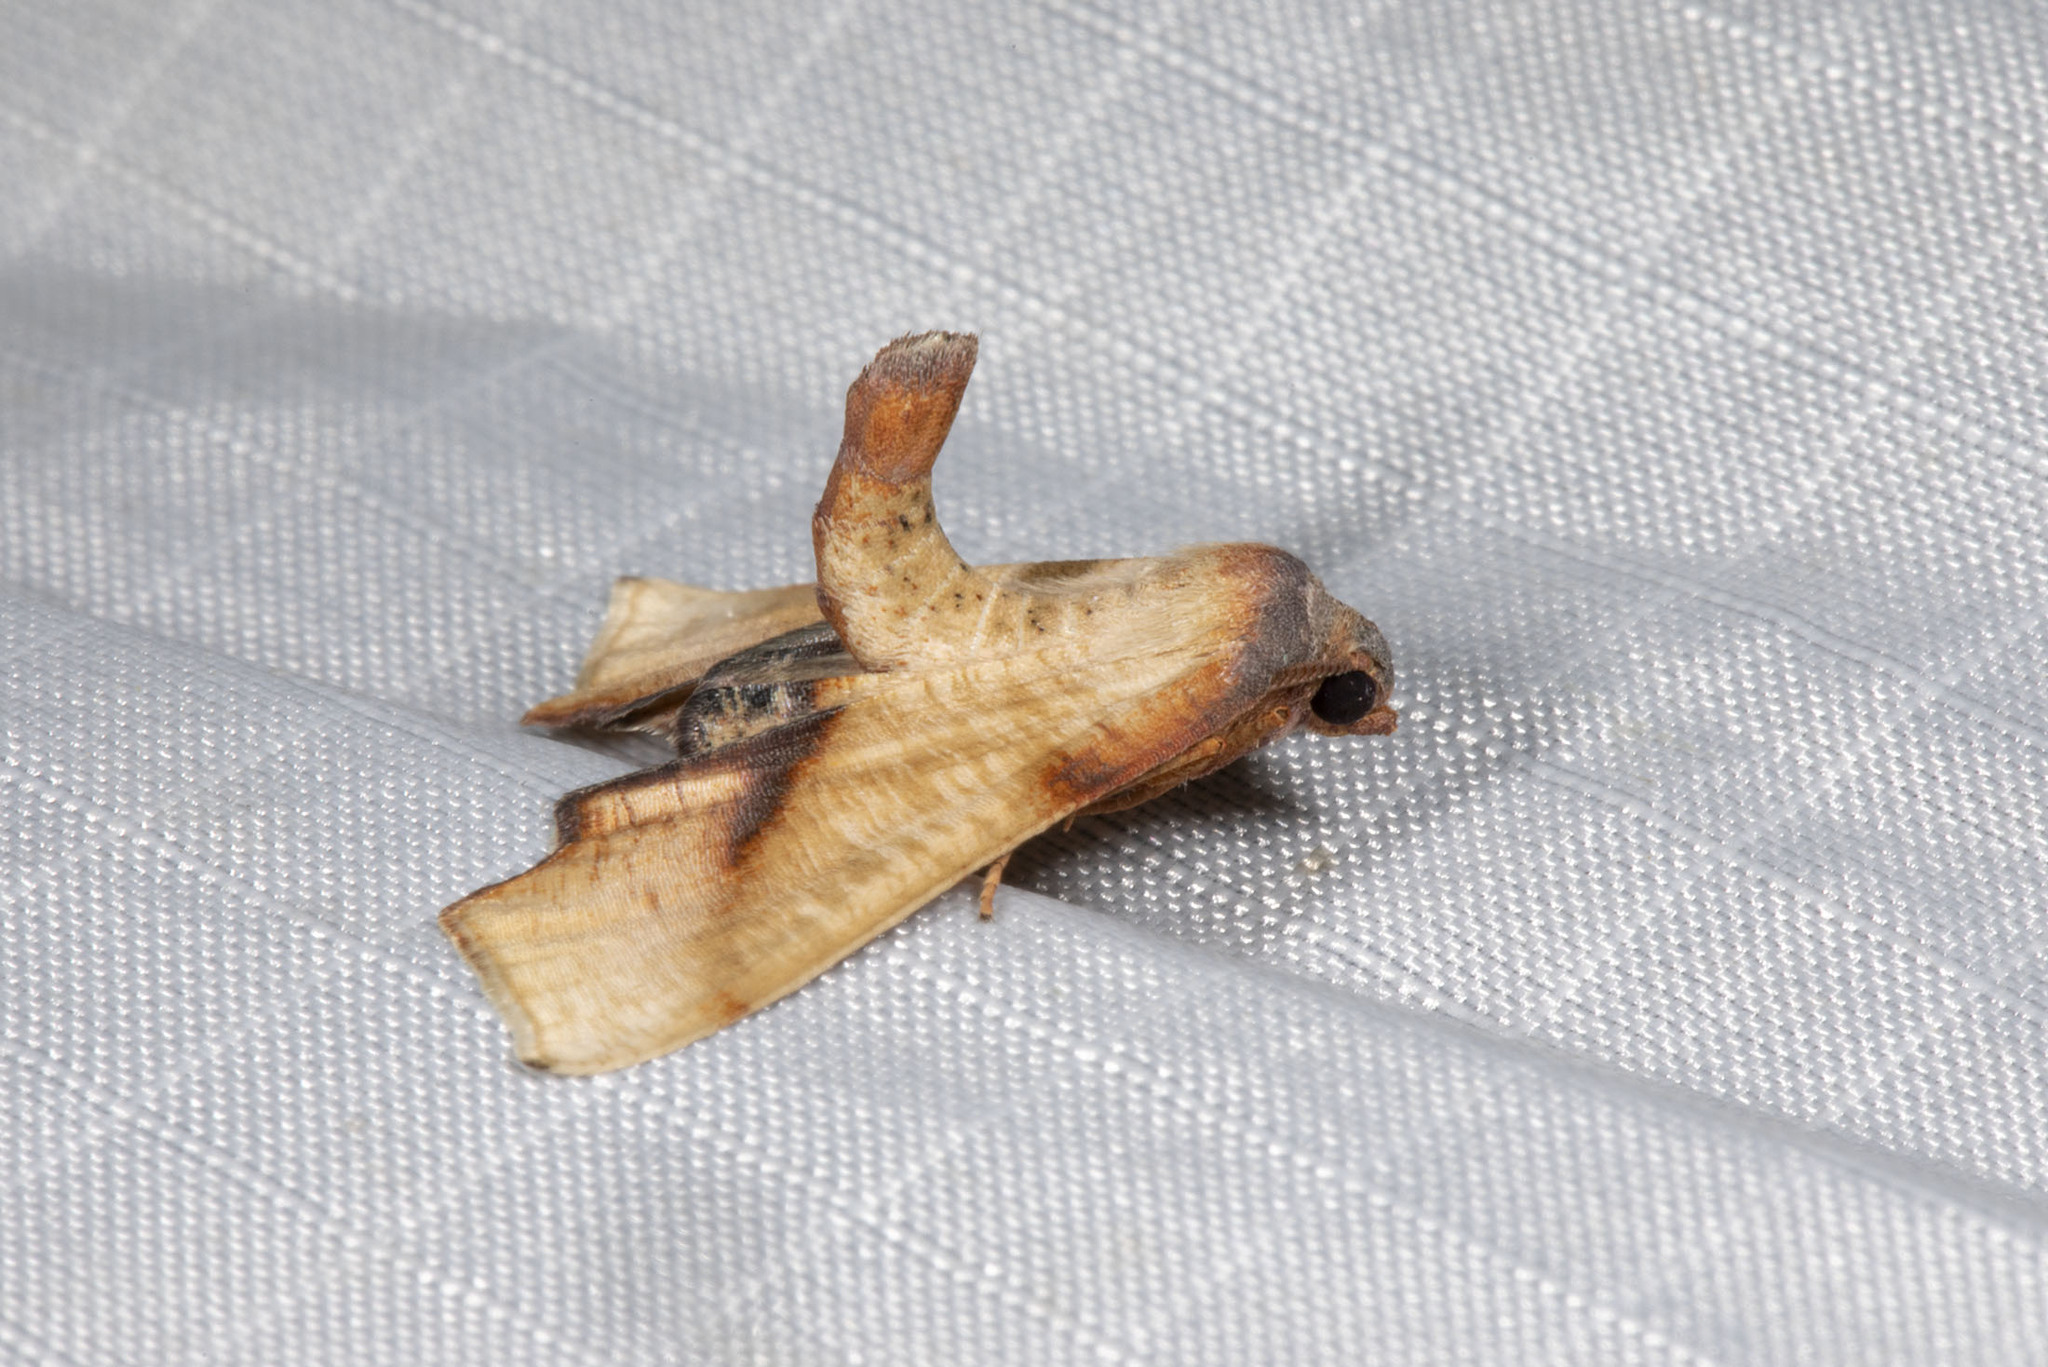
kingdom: Animalia
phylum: Arthropoda
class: Insecta
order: Lepidoptera
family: Geometridae
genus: Plagodis
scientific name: Plagodis fervidaria
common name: Fervid plagodis
